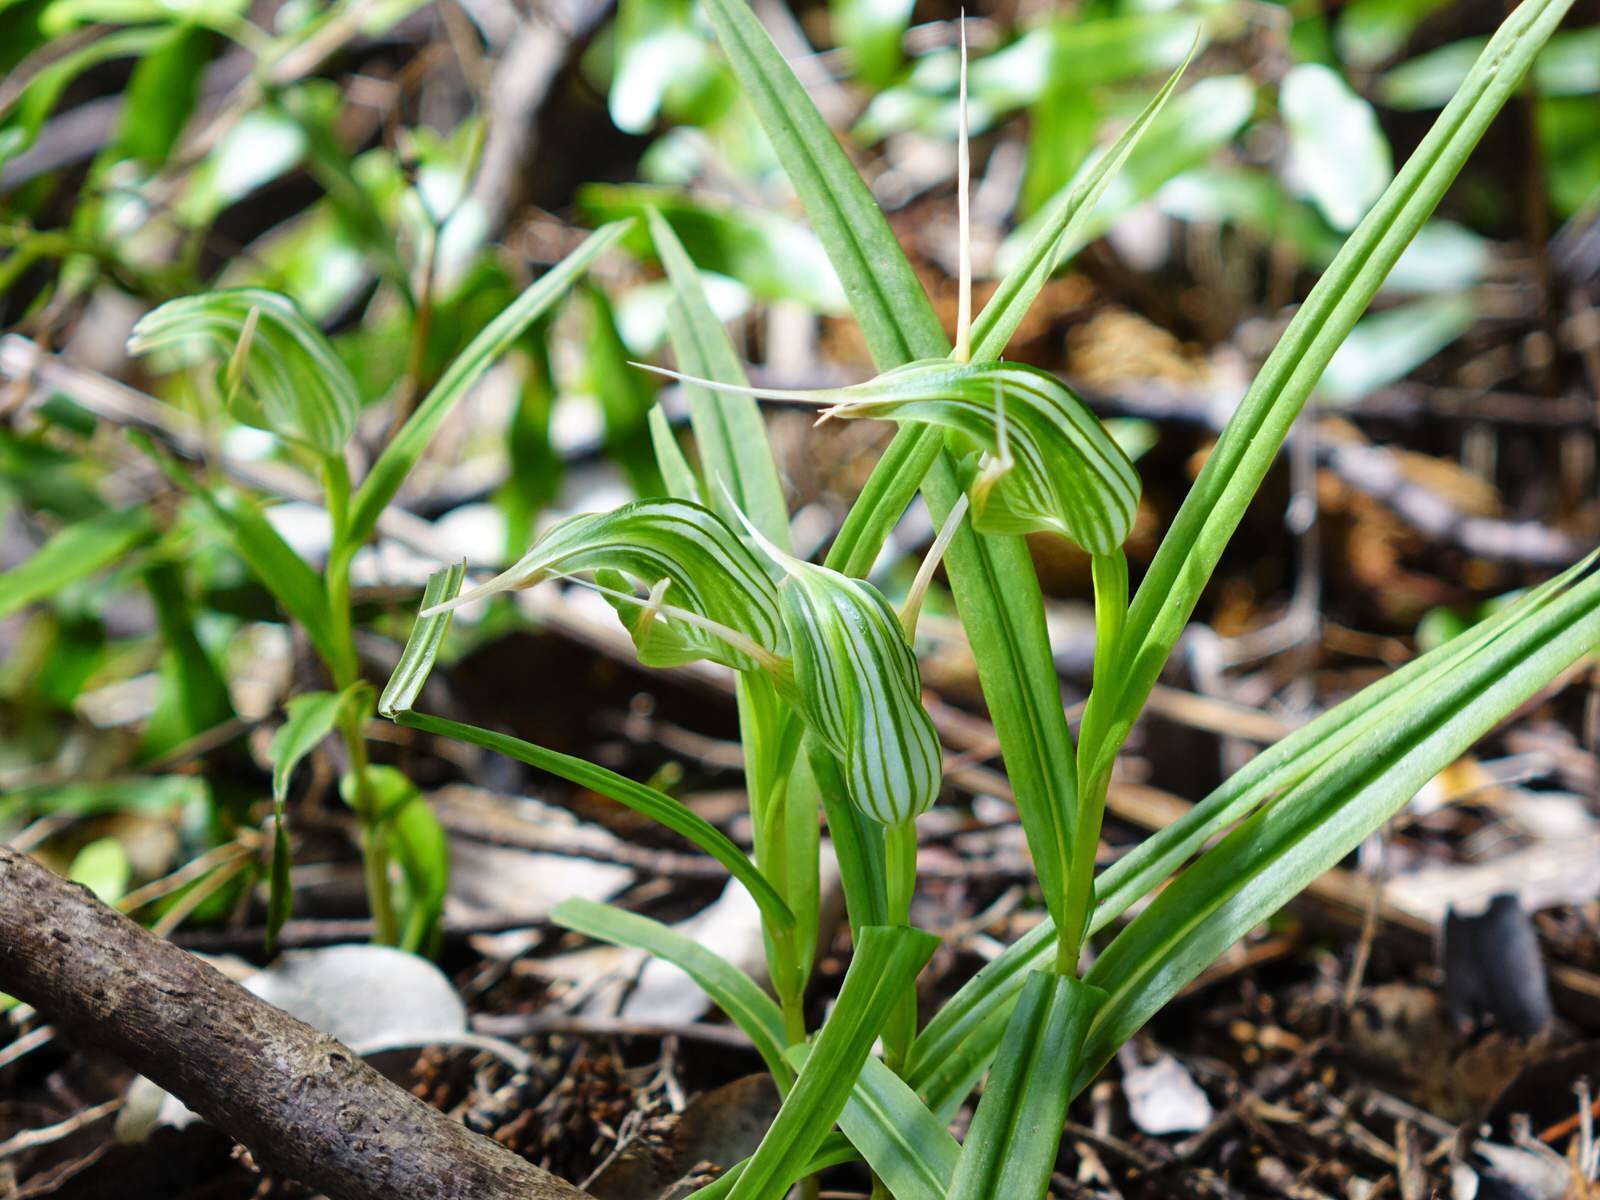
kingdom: Plantae
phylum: Tracheophyta
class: Liliopsida
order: Asparagales
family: Orchidaceae
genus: Pterostylis
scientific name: Pterostylis banksii
